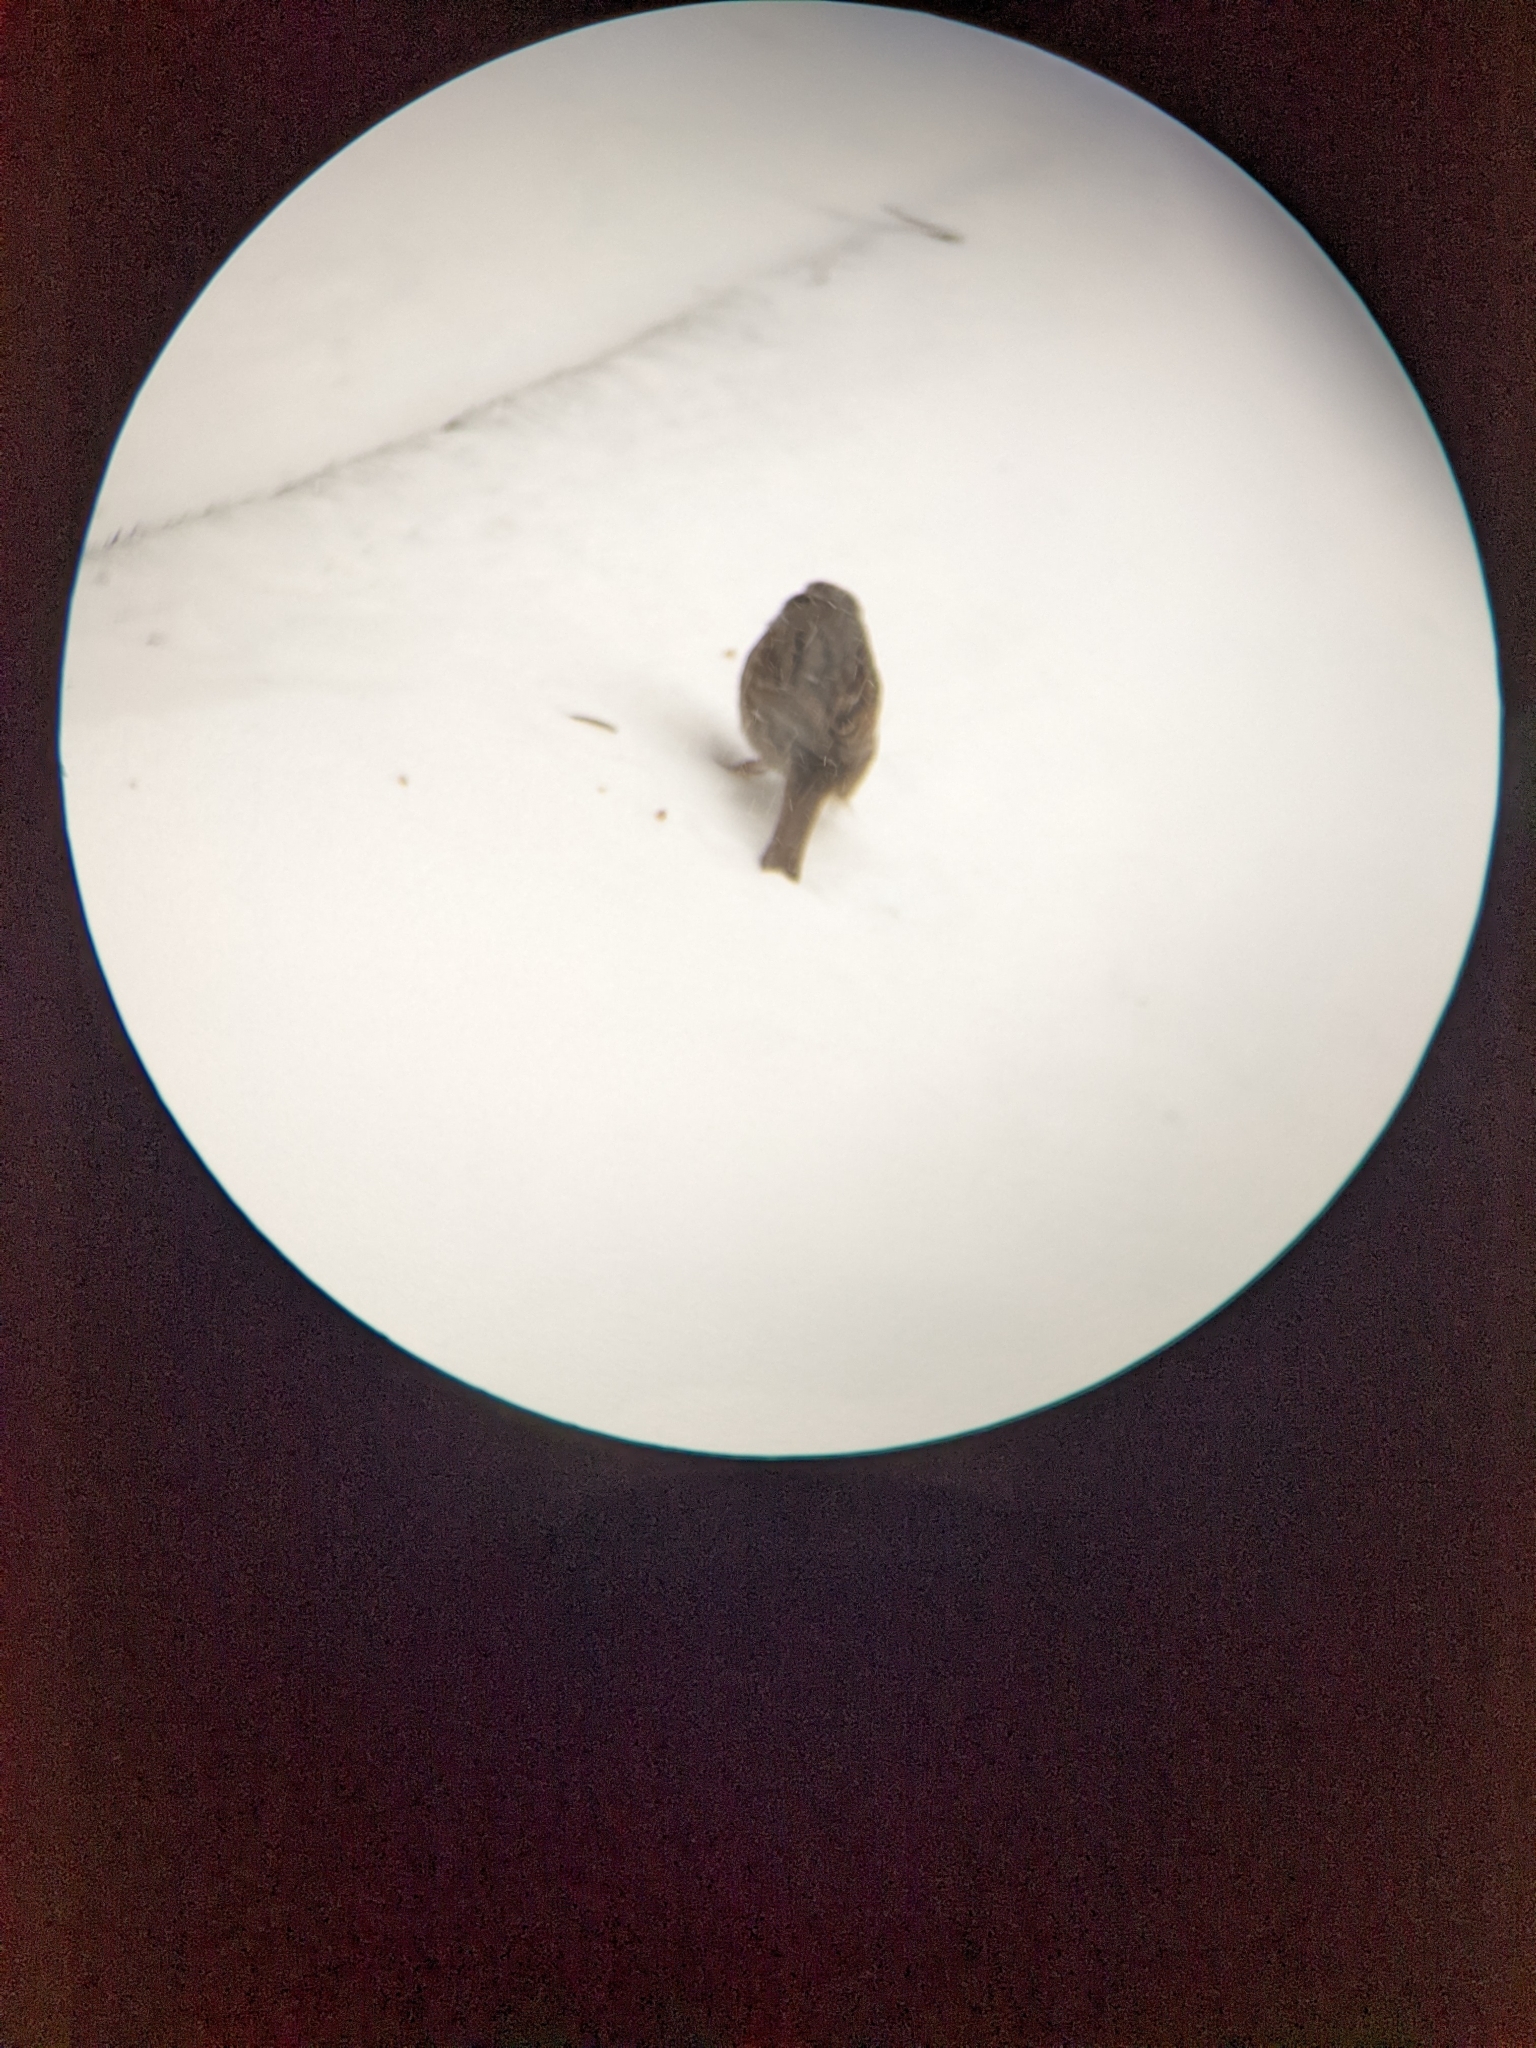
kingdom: Animalia
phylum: Chordata
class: Aves
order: Passeriformes
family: Passerellidae
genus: Melospiza
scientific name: Melospiza melodia
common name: Song sparrow
